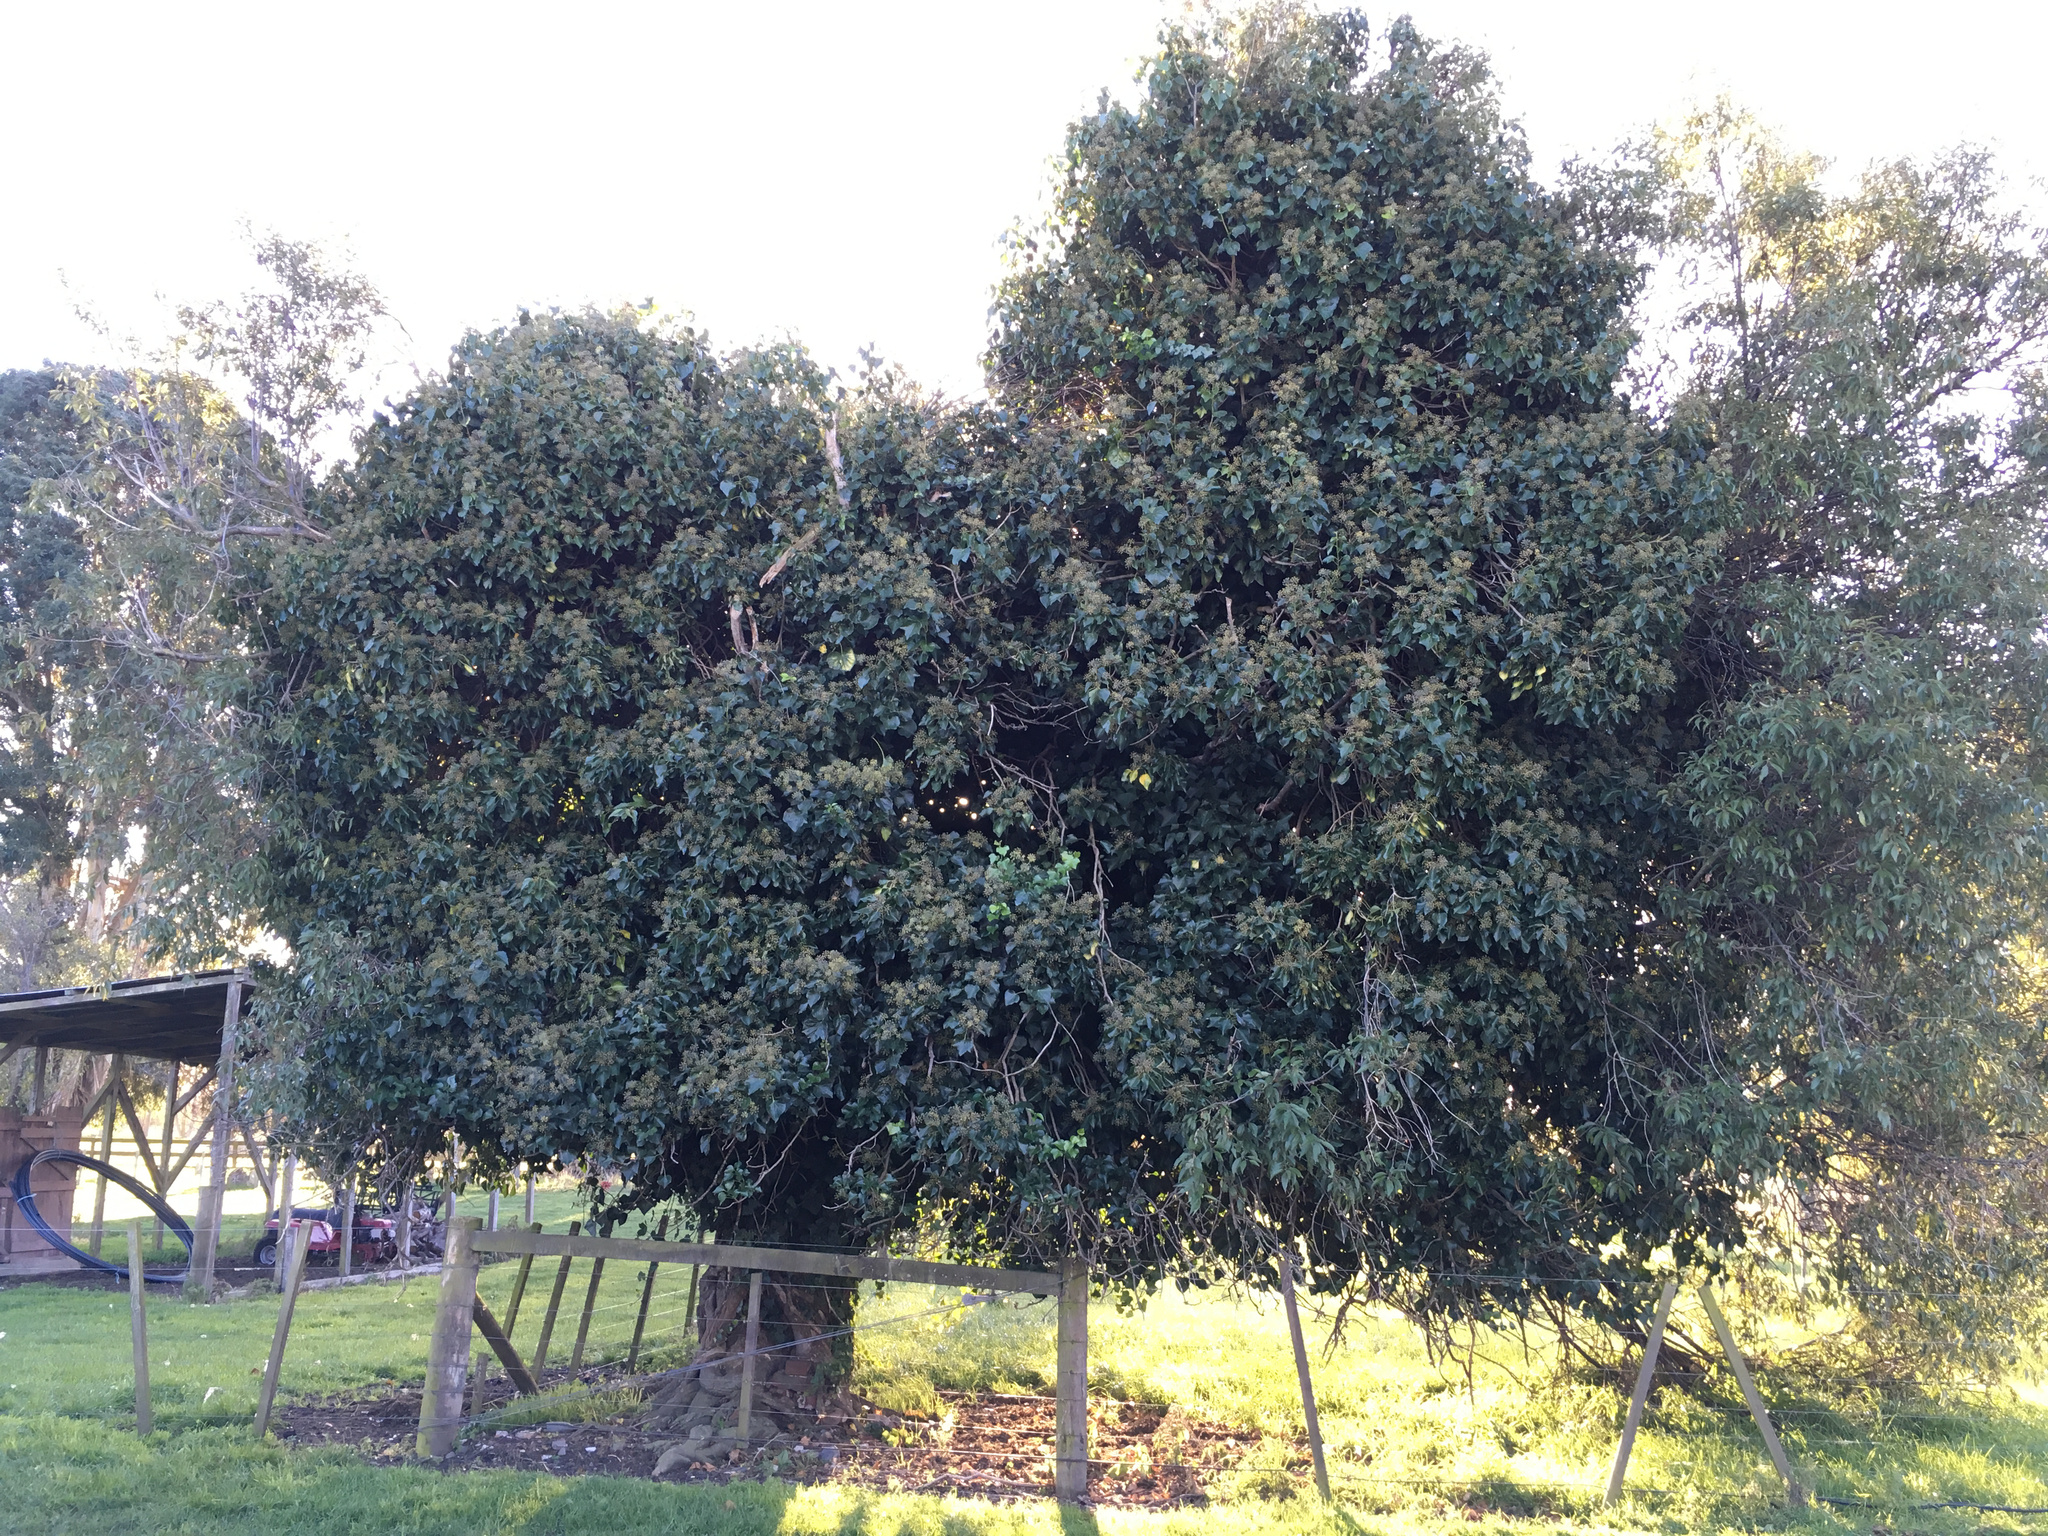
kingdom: Plantae
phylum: Tracheophyta
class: Magnoliopsida
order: Apiales
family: Araliaceae
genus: Hedera
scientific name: Hedera helix
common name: Ivy
